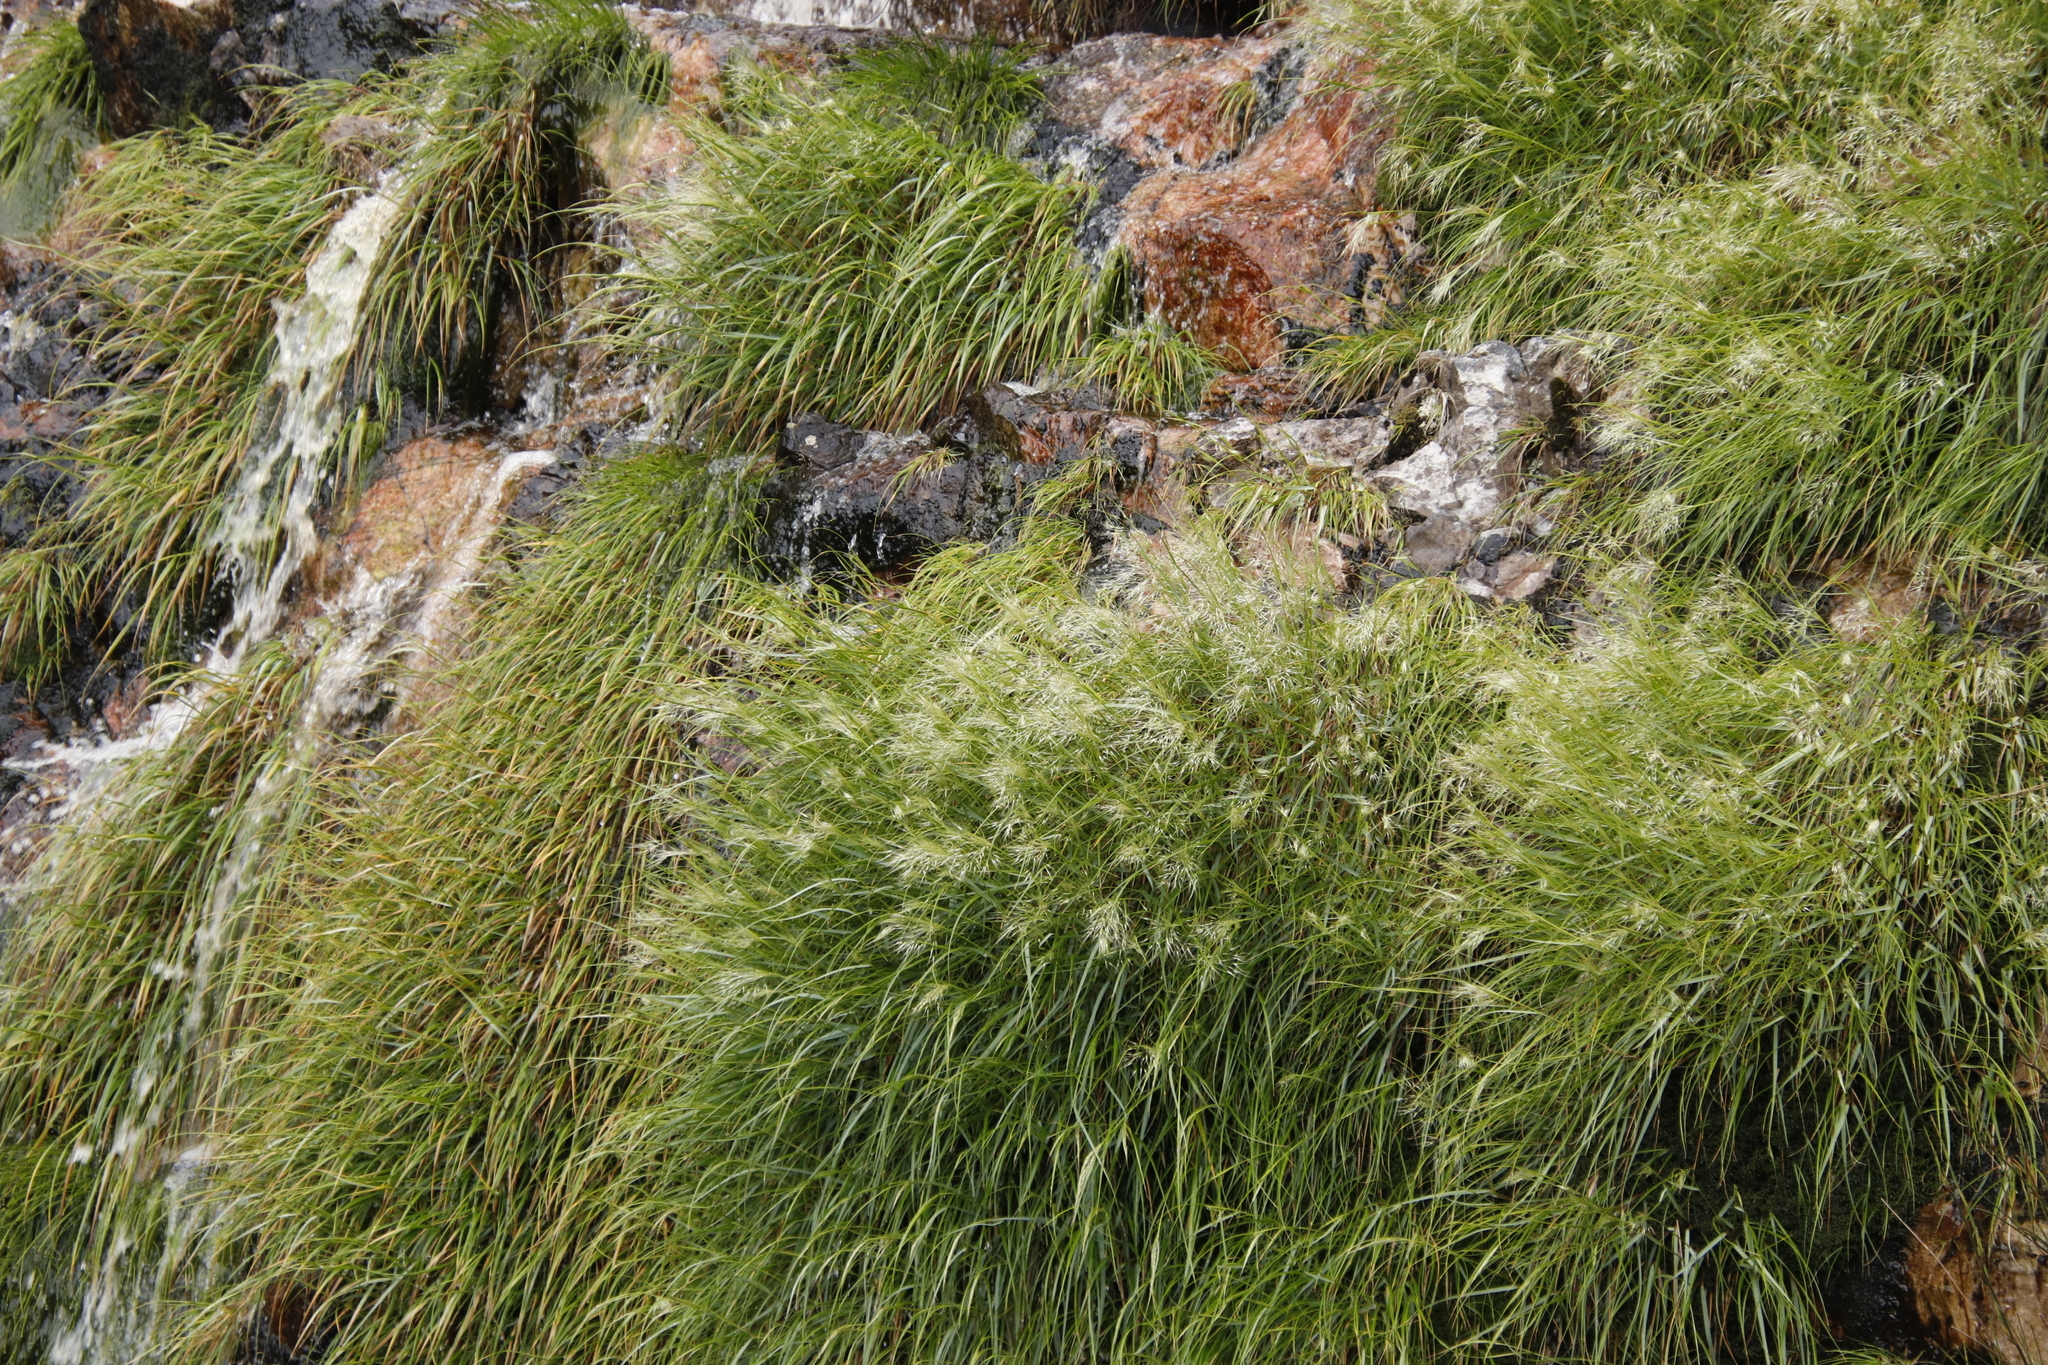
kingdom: Plantae
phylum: Tracheophyta
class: Liliopsida
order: Poales
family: Poaceae
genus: Pentameris
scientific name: Pentameris capensis
